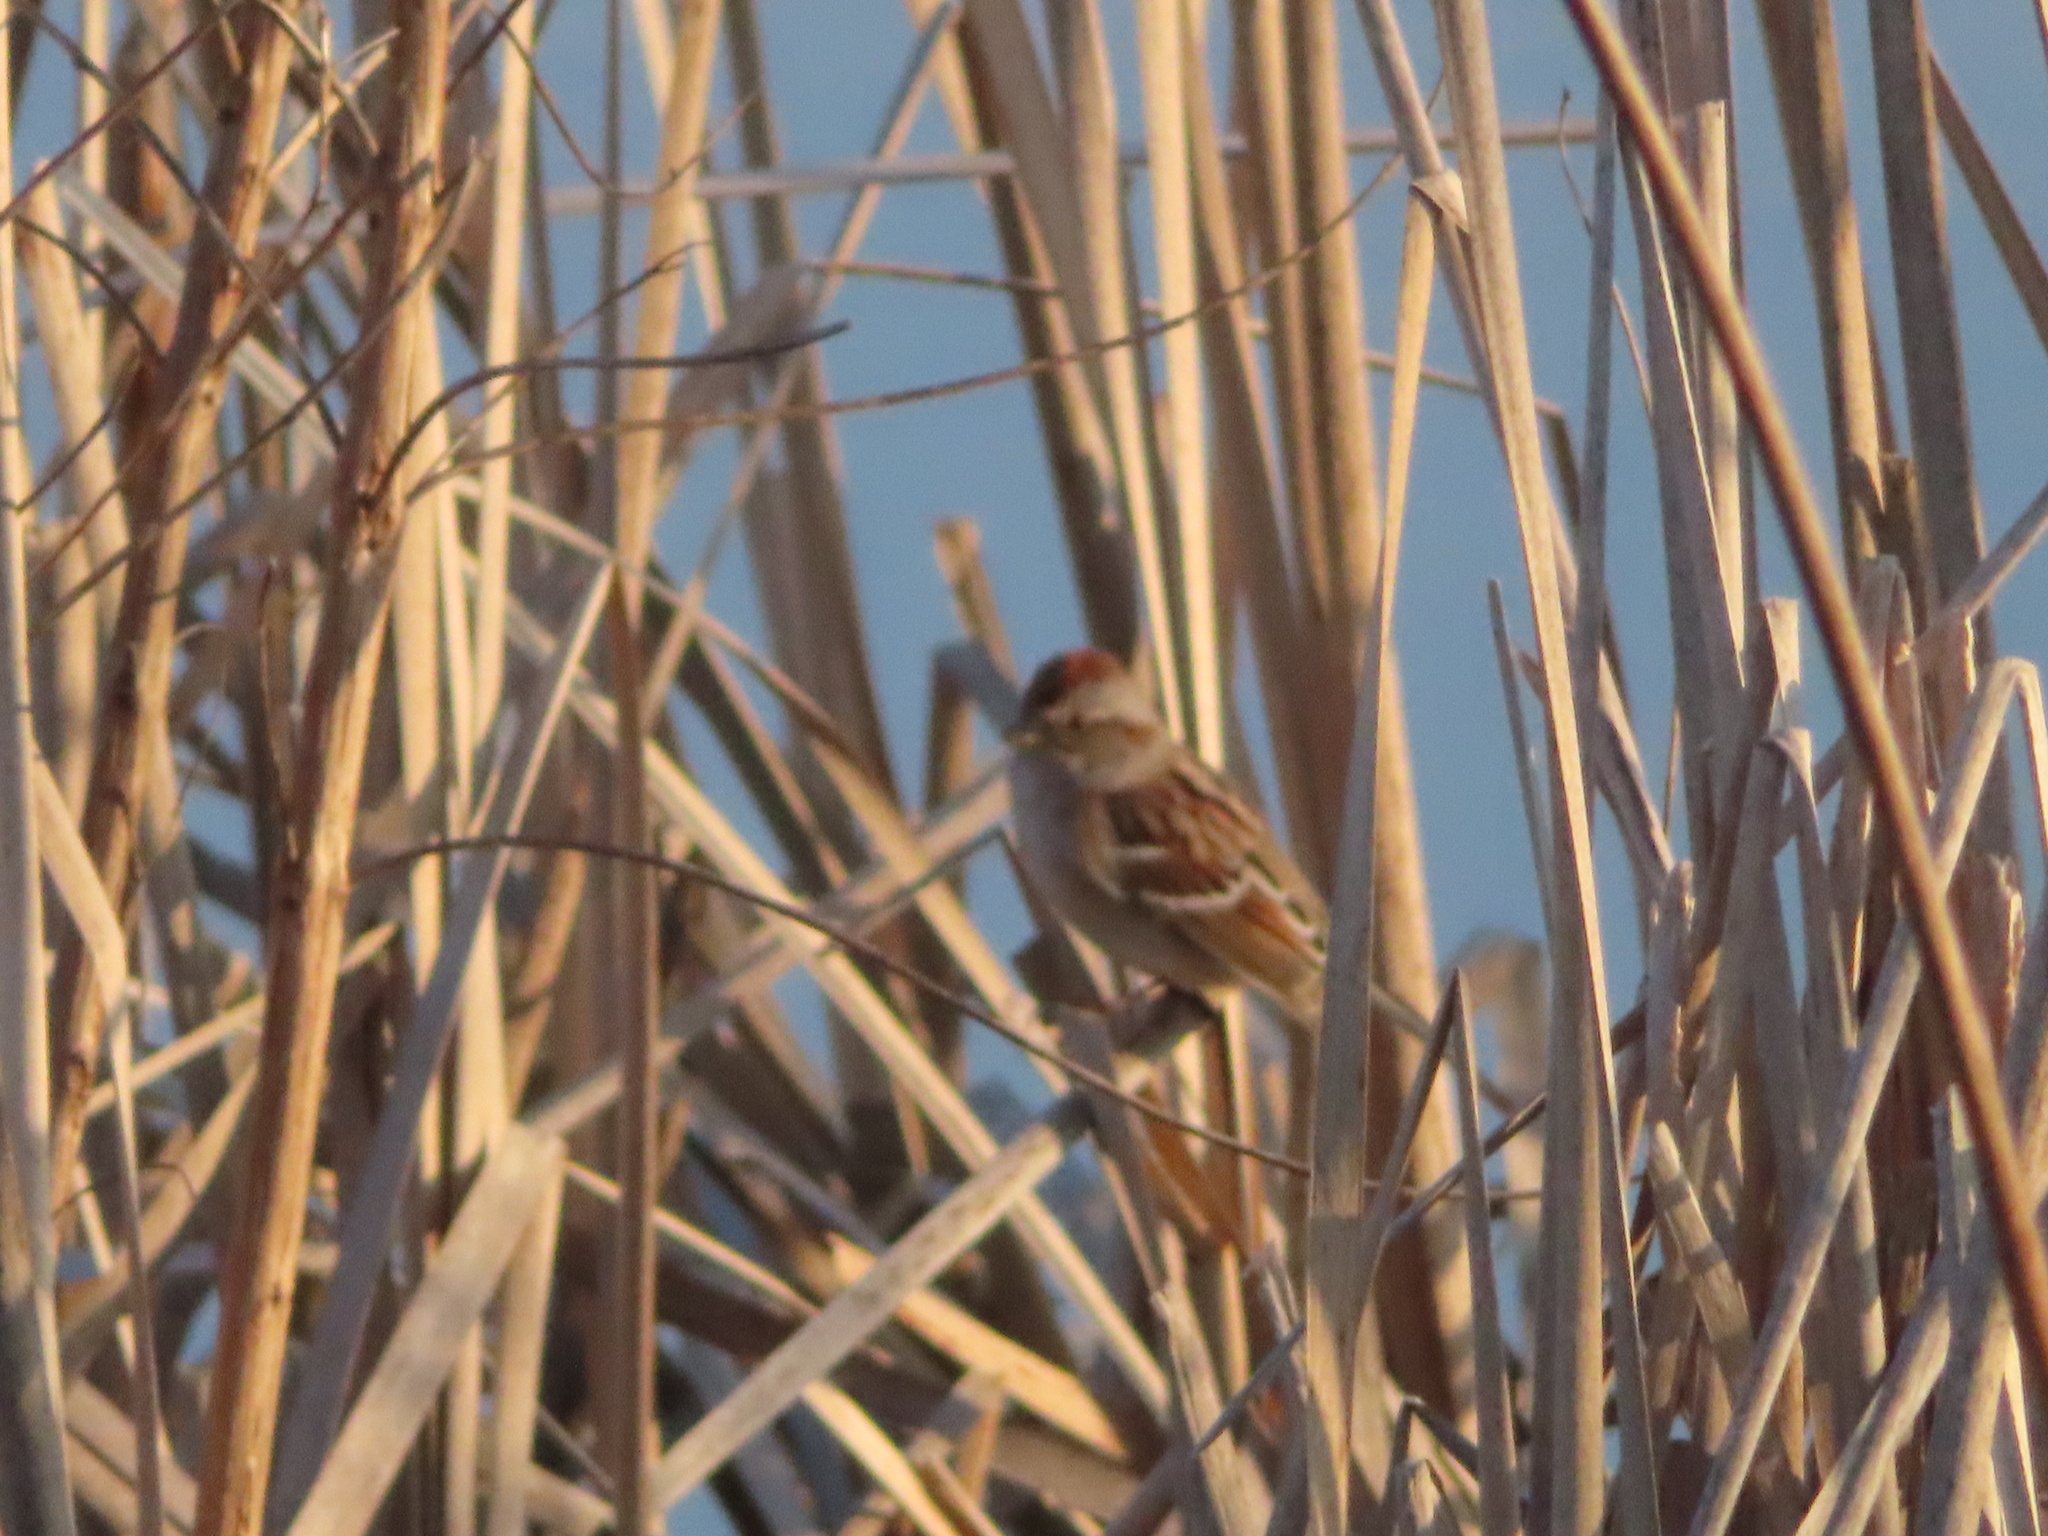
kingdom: Animalia
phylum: Chordata
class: Aves
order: Passeriformes
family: Passerellidae
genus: Spizelloides
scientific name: Spizelloides arborea
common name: American tree sparrow
